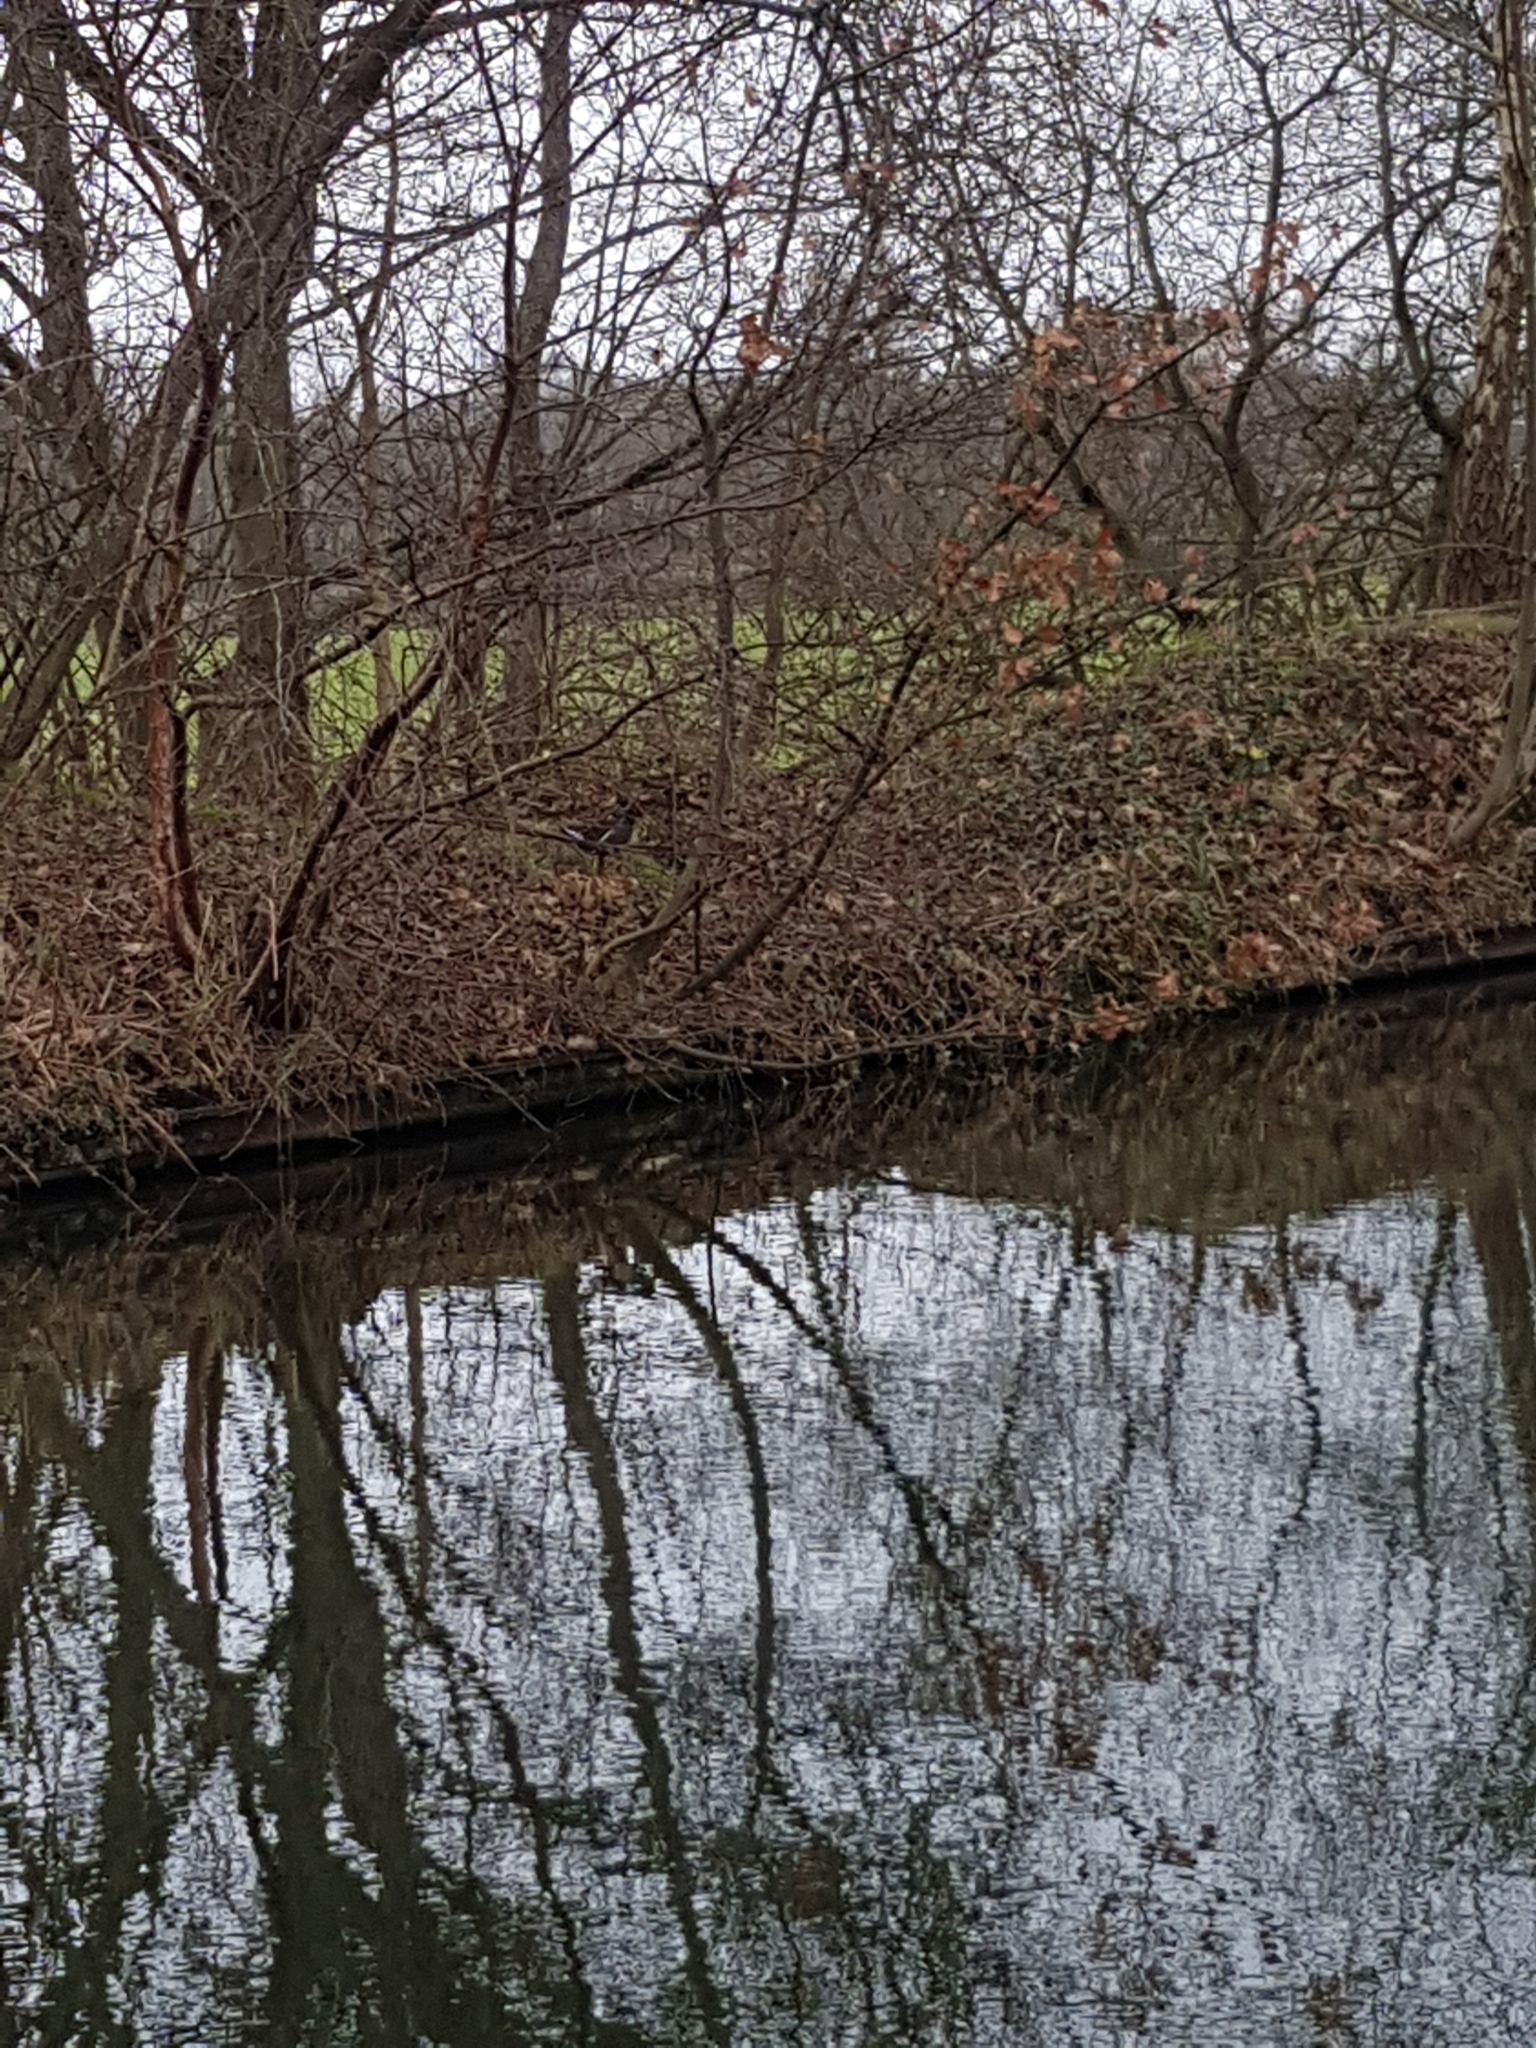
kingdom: Animalia
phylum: Chordata
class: Aves
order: Gruiformes
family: Rallidae
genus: Gallinula
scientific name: Gallinula chloropus
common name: Common moorhen
